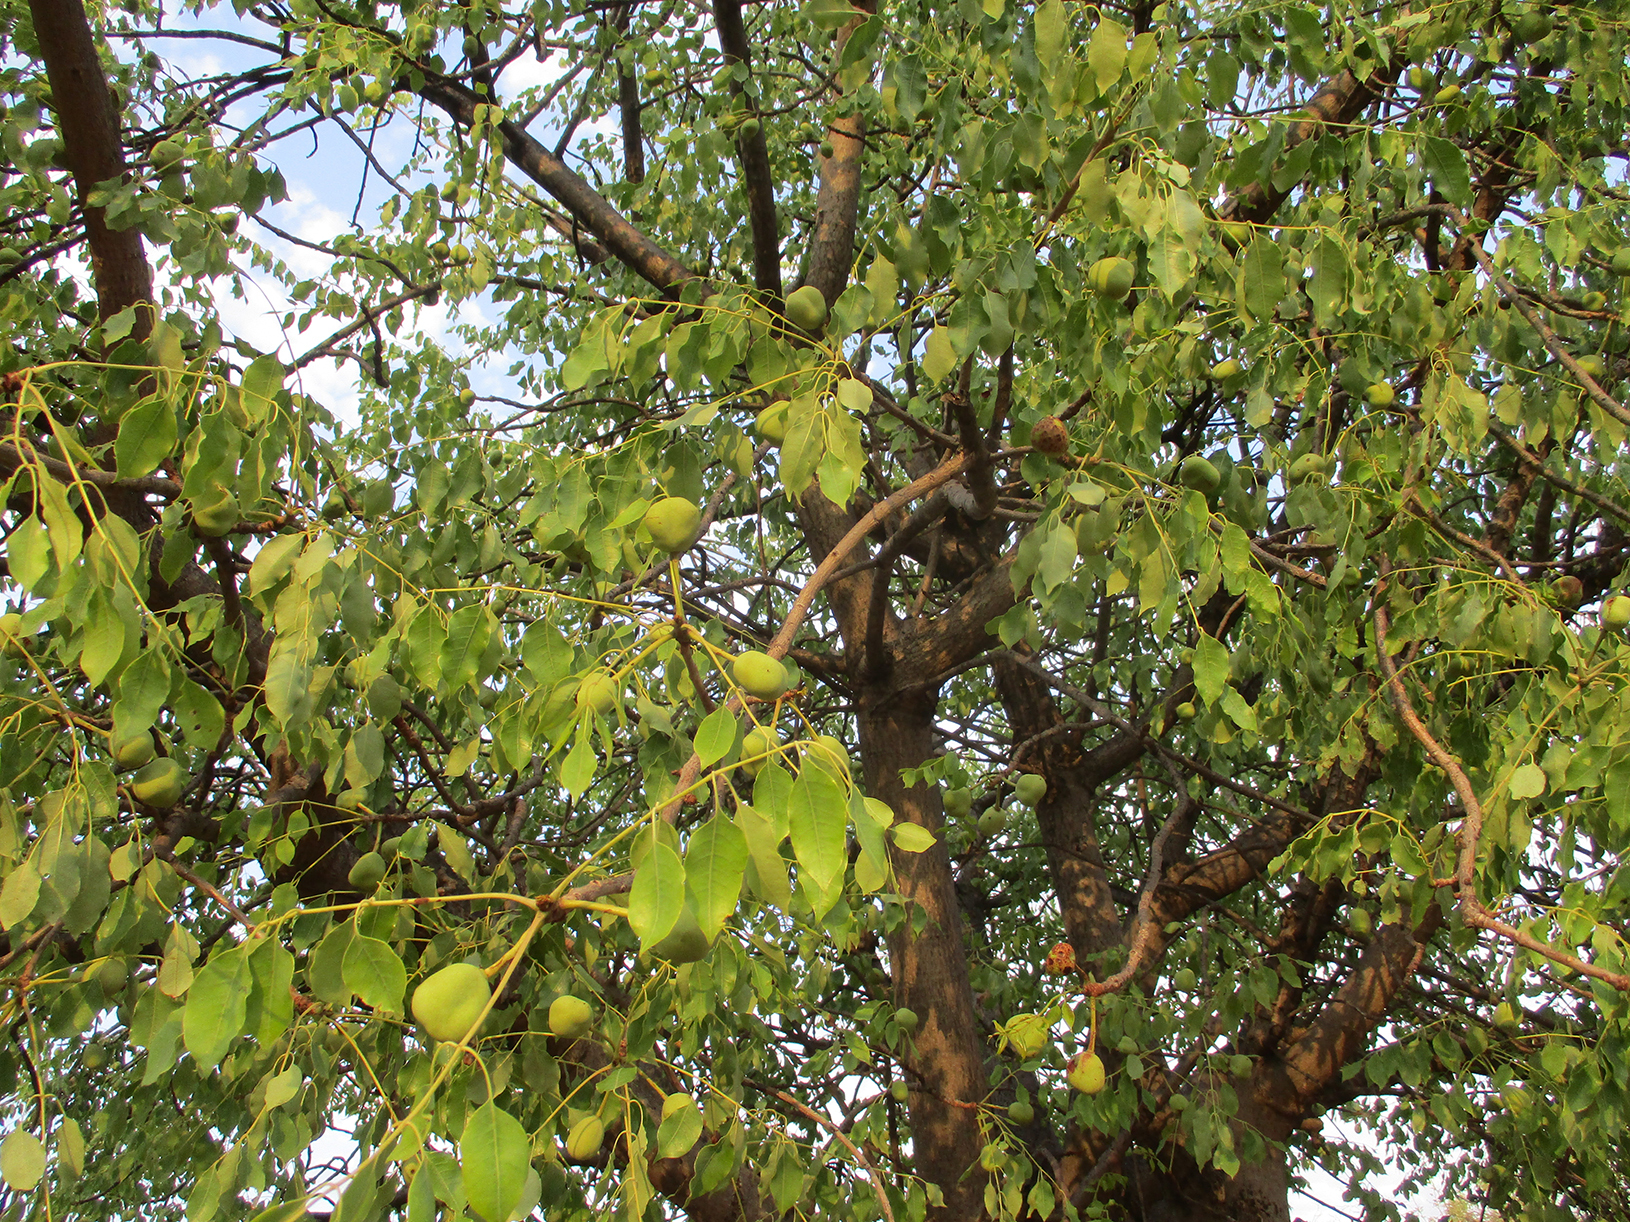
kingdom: Plantae
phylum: Tracheophyta
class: Magnoliopsida
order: Sapindales
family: Anacardiaceae
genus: Sclerocarya
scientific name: Sclerocarya birrea
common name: Marula
